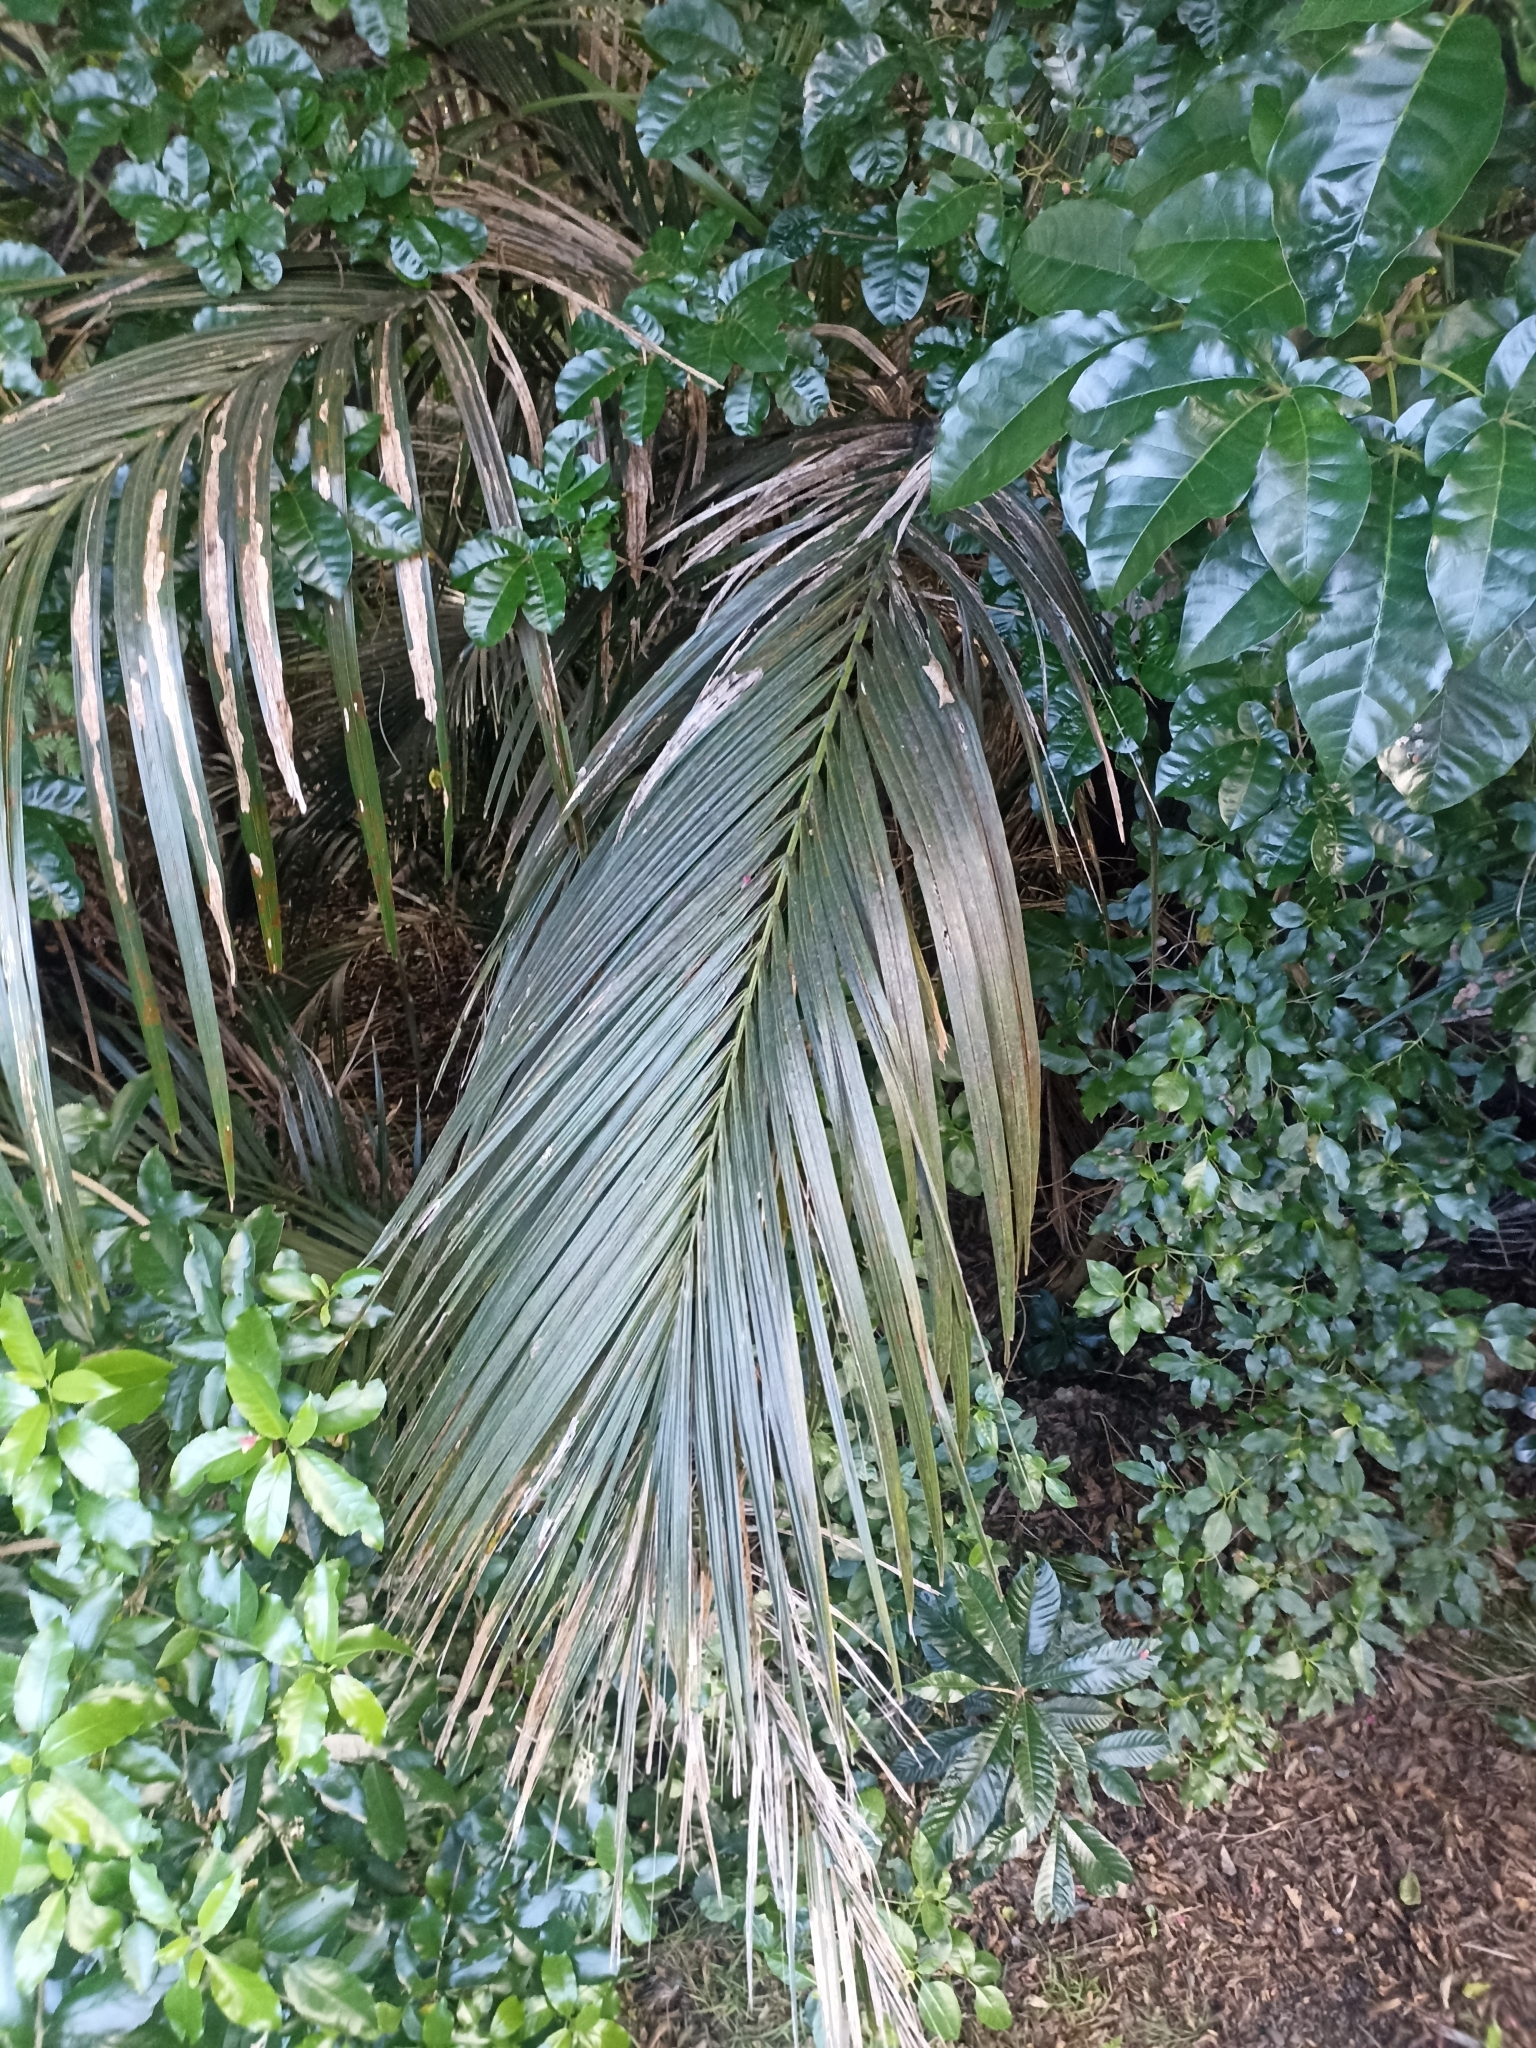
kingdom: Plantae
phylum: Tracheophyta
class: Liliopsida
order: Arecales
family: Arecaceae
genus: Rhopalostylis
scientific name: Rhopalostylis sapida
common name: Feather-duster palm
